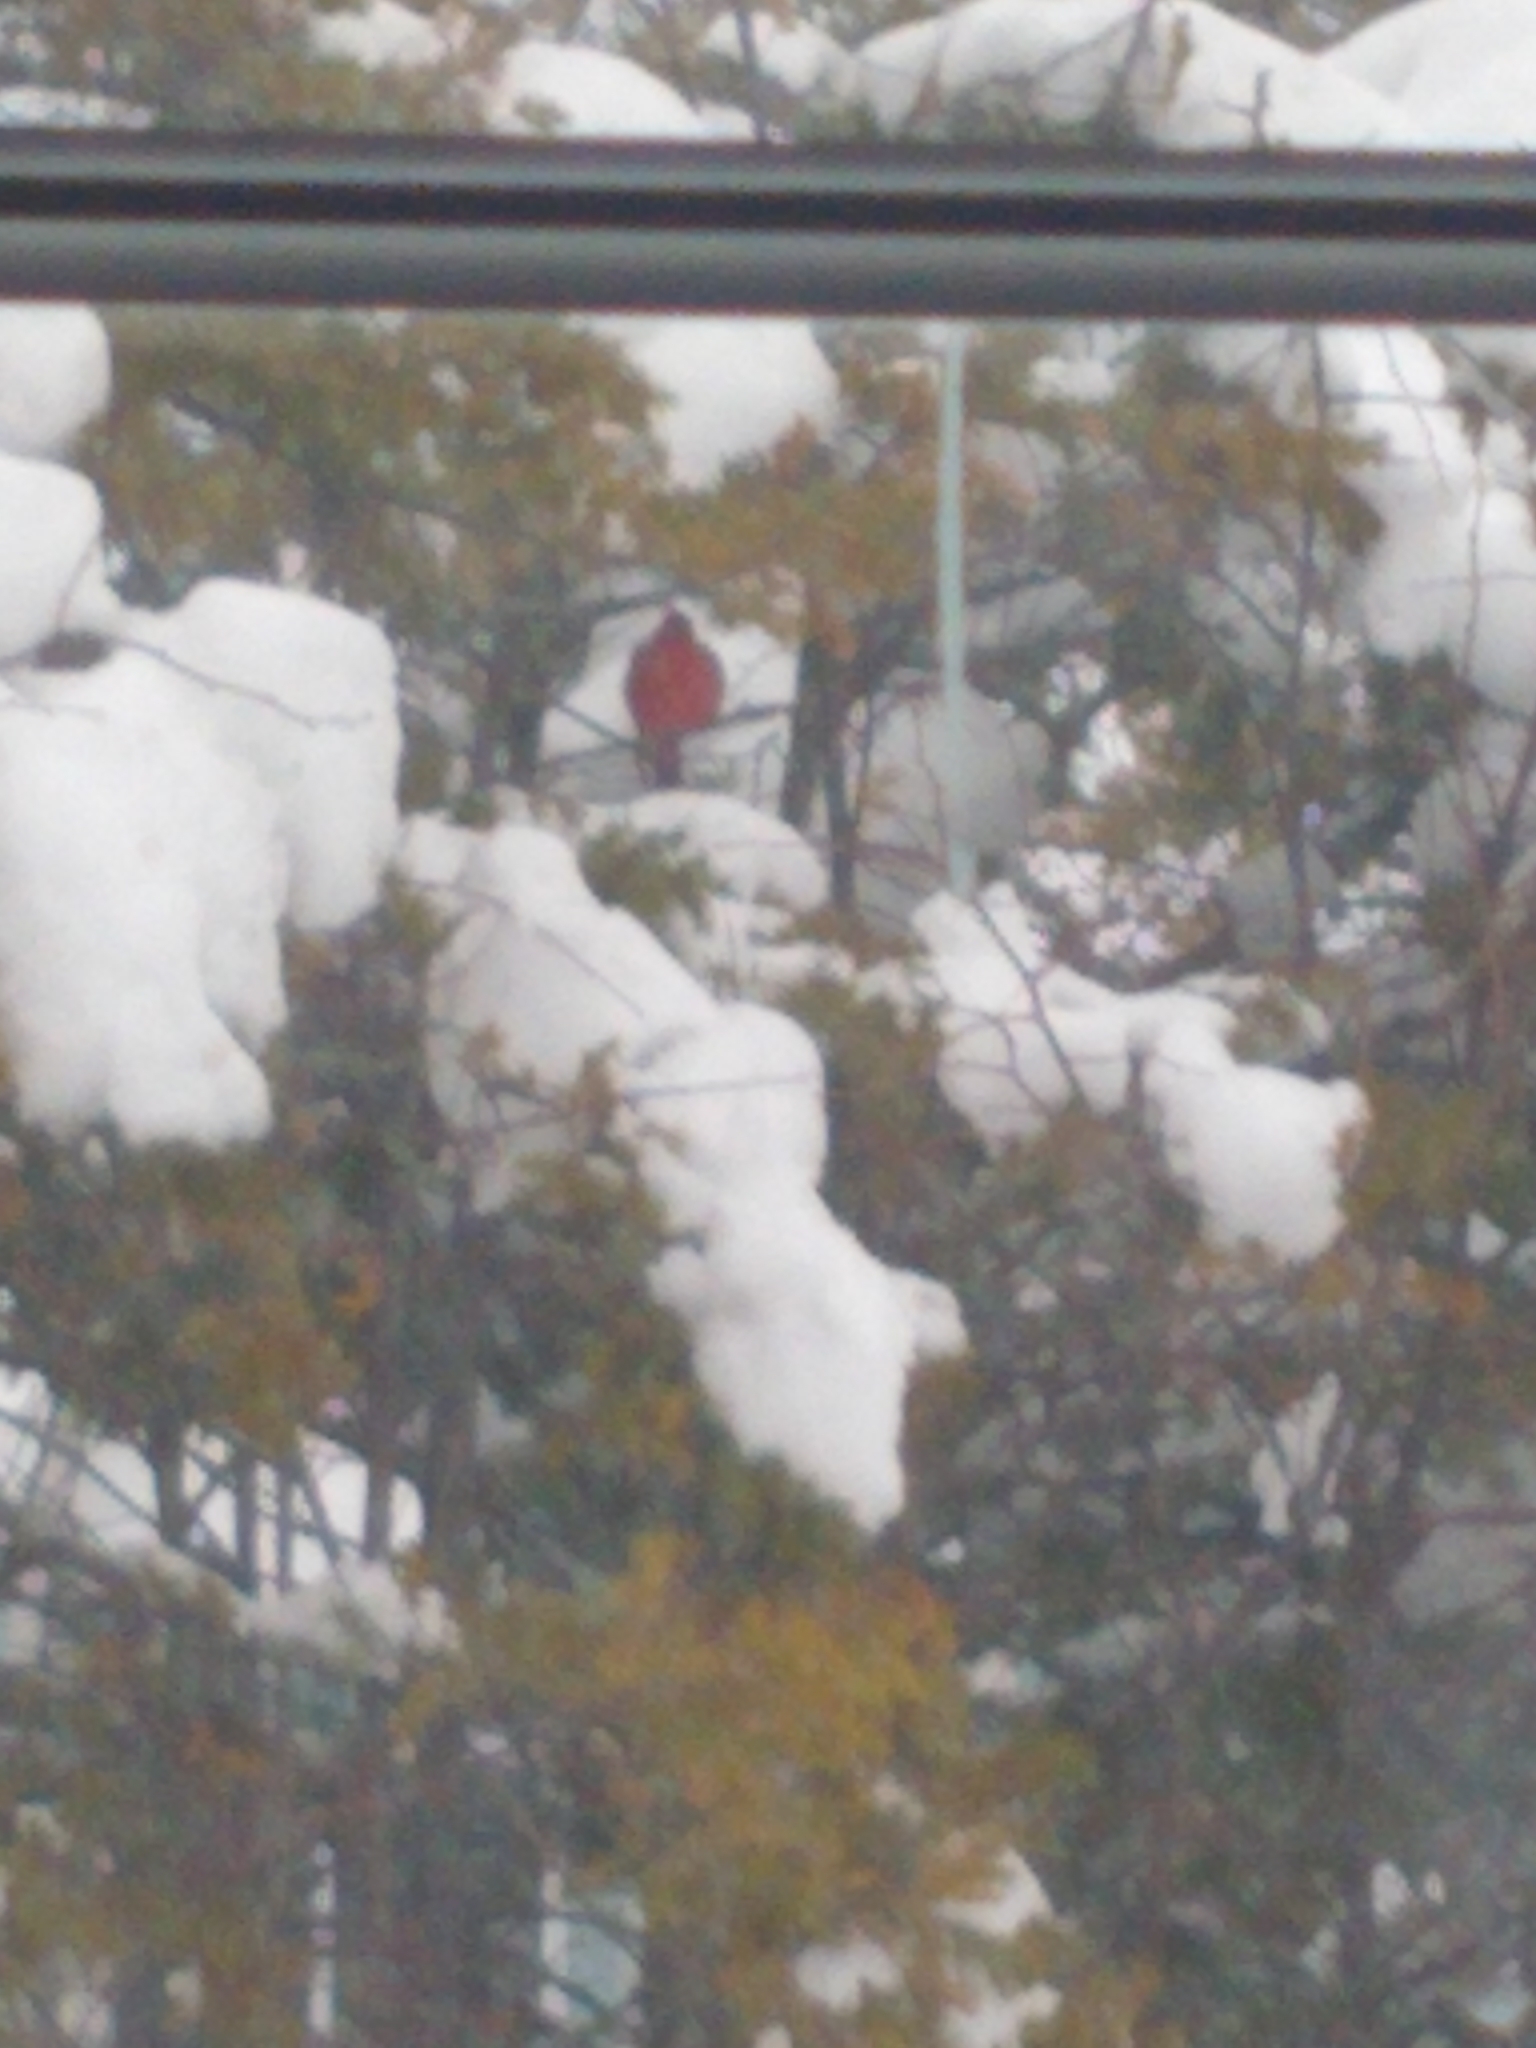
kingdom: Animalia
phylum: Chordata
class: Aves
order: Passeriformes
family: Cardinalidae
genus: Cardinalis
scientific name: Cardinalis cardinalis
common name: Northern cardinal
